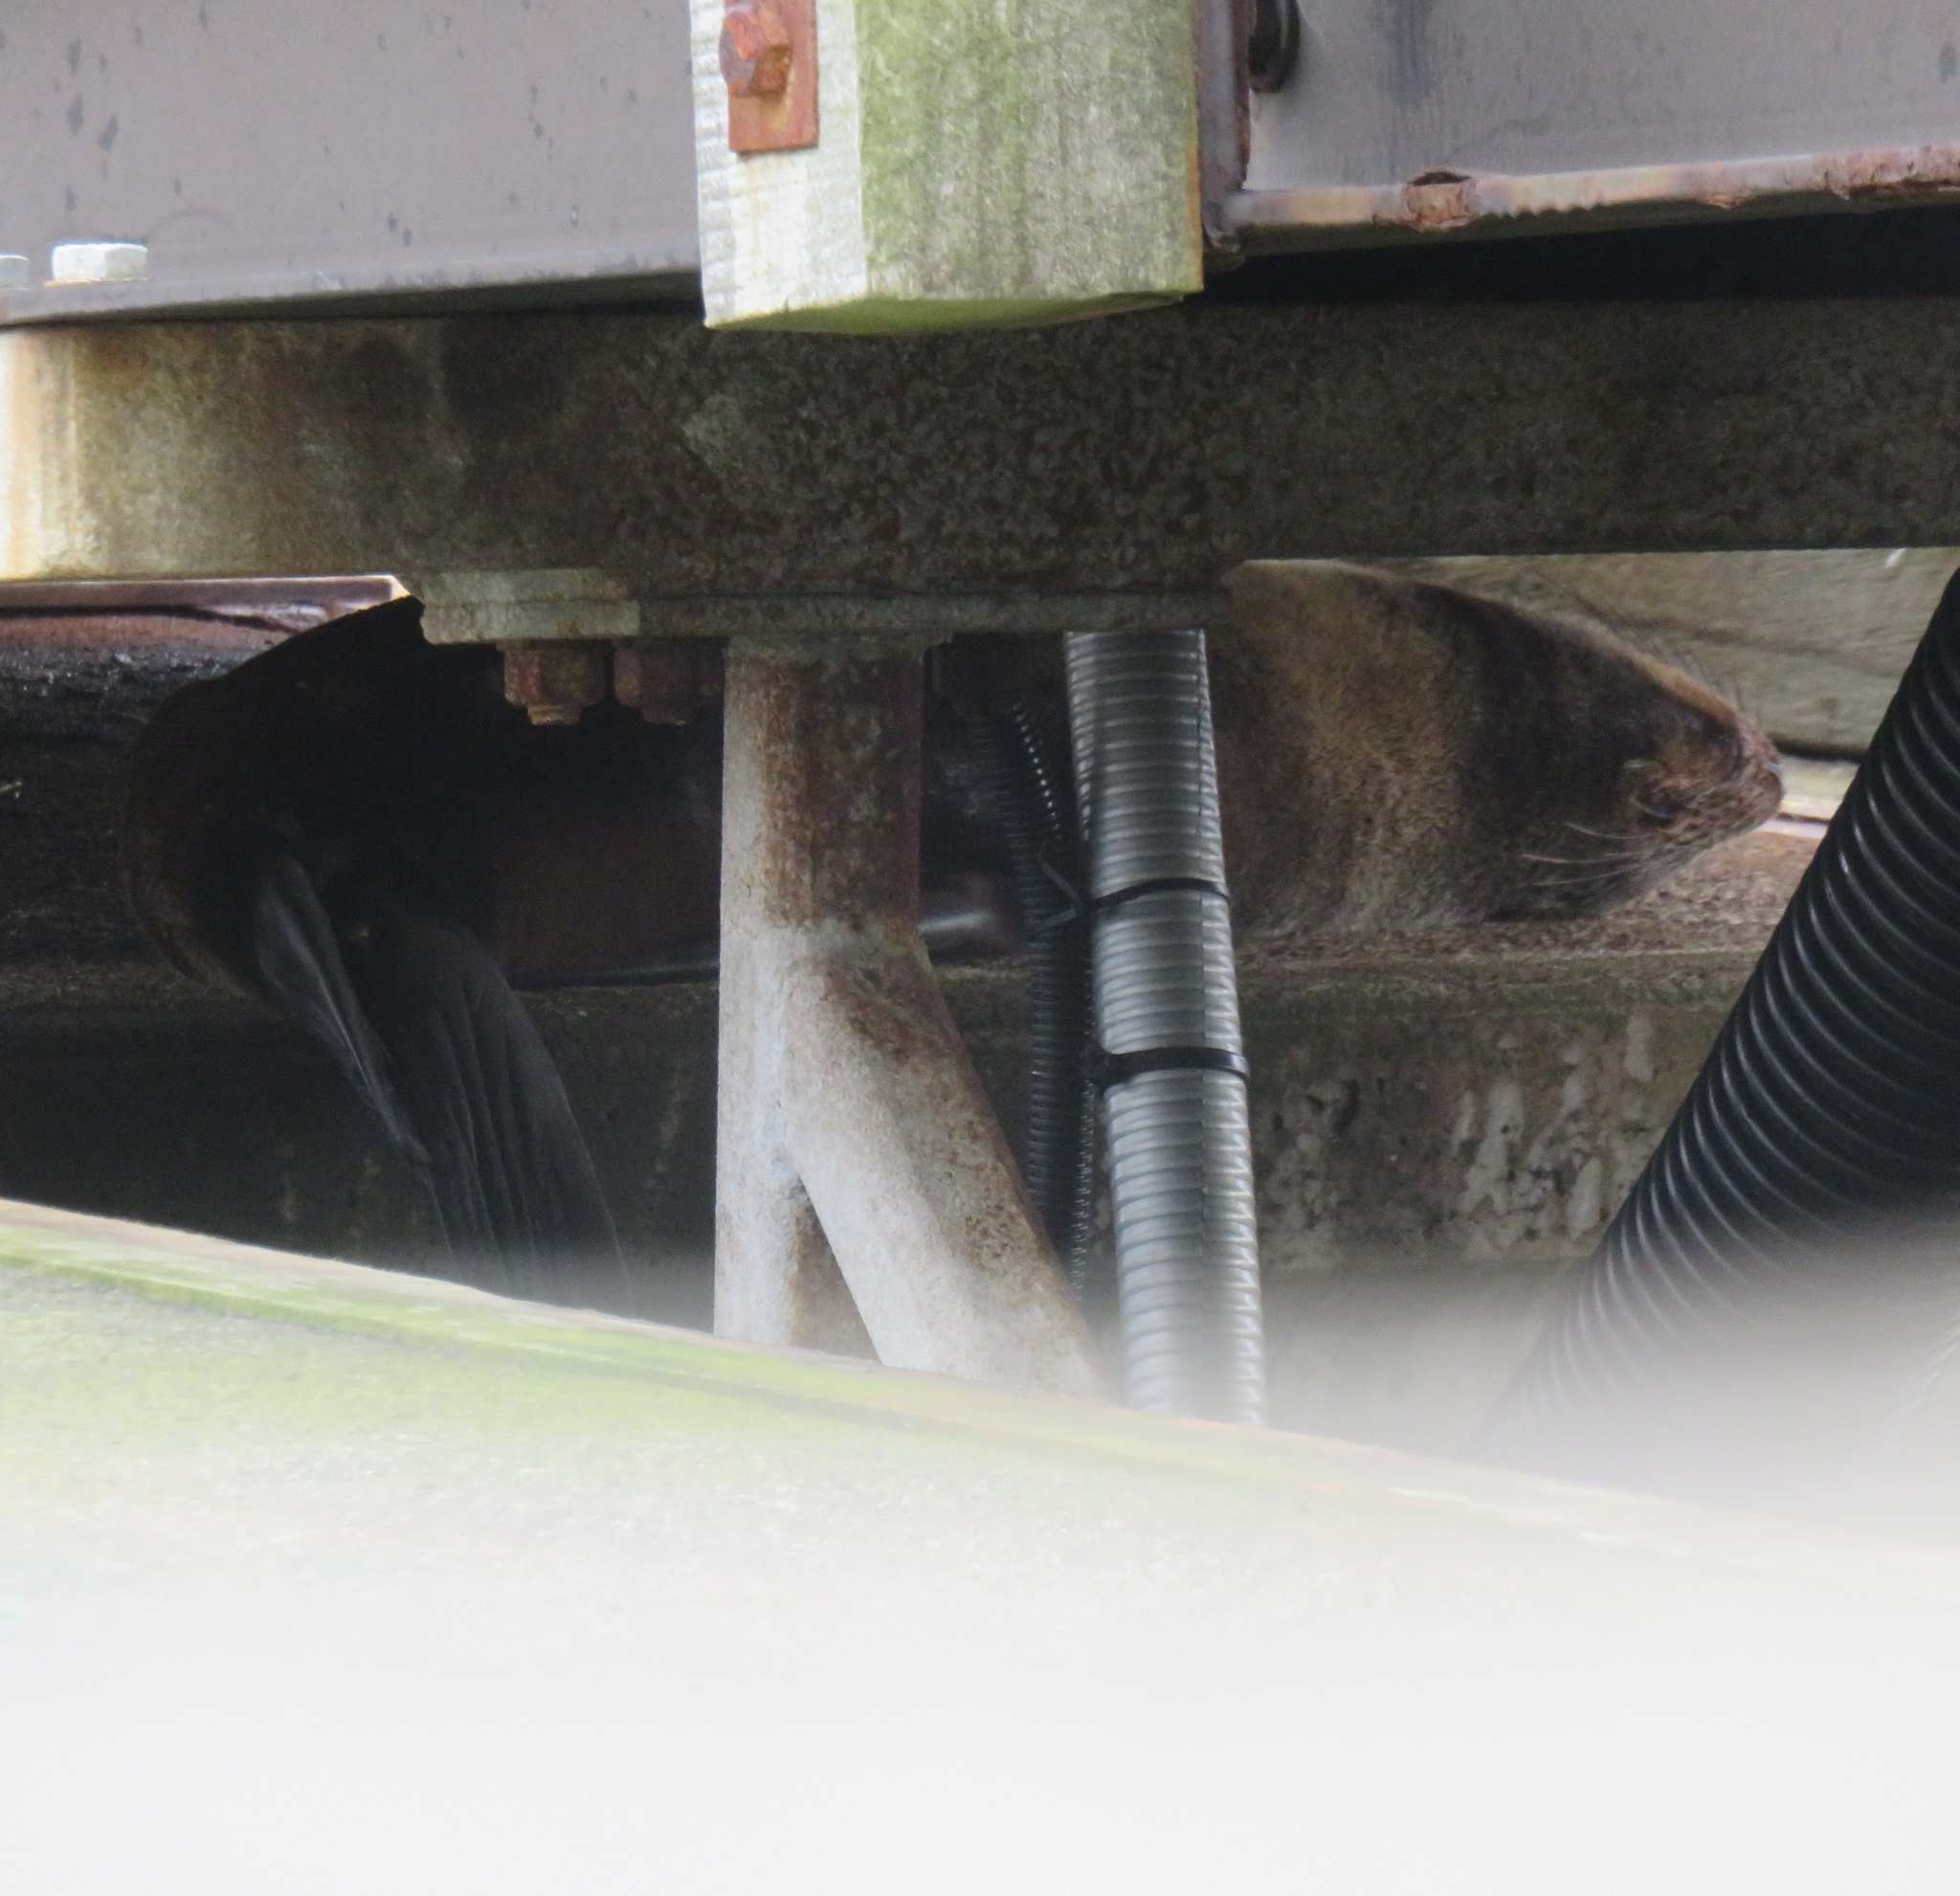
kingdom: Animalia
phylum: Chordata
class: Mammalia
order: Carnivora
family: Otariidae
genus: Arctocephalus
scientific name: Arctocephalus forsteri
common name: New zealand fur seal
